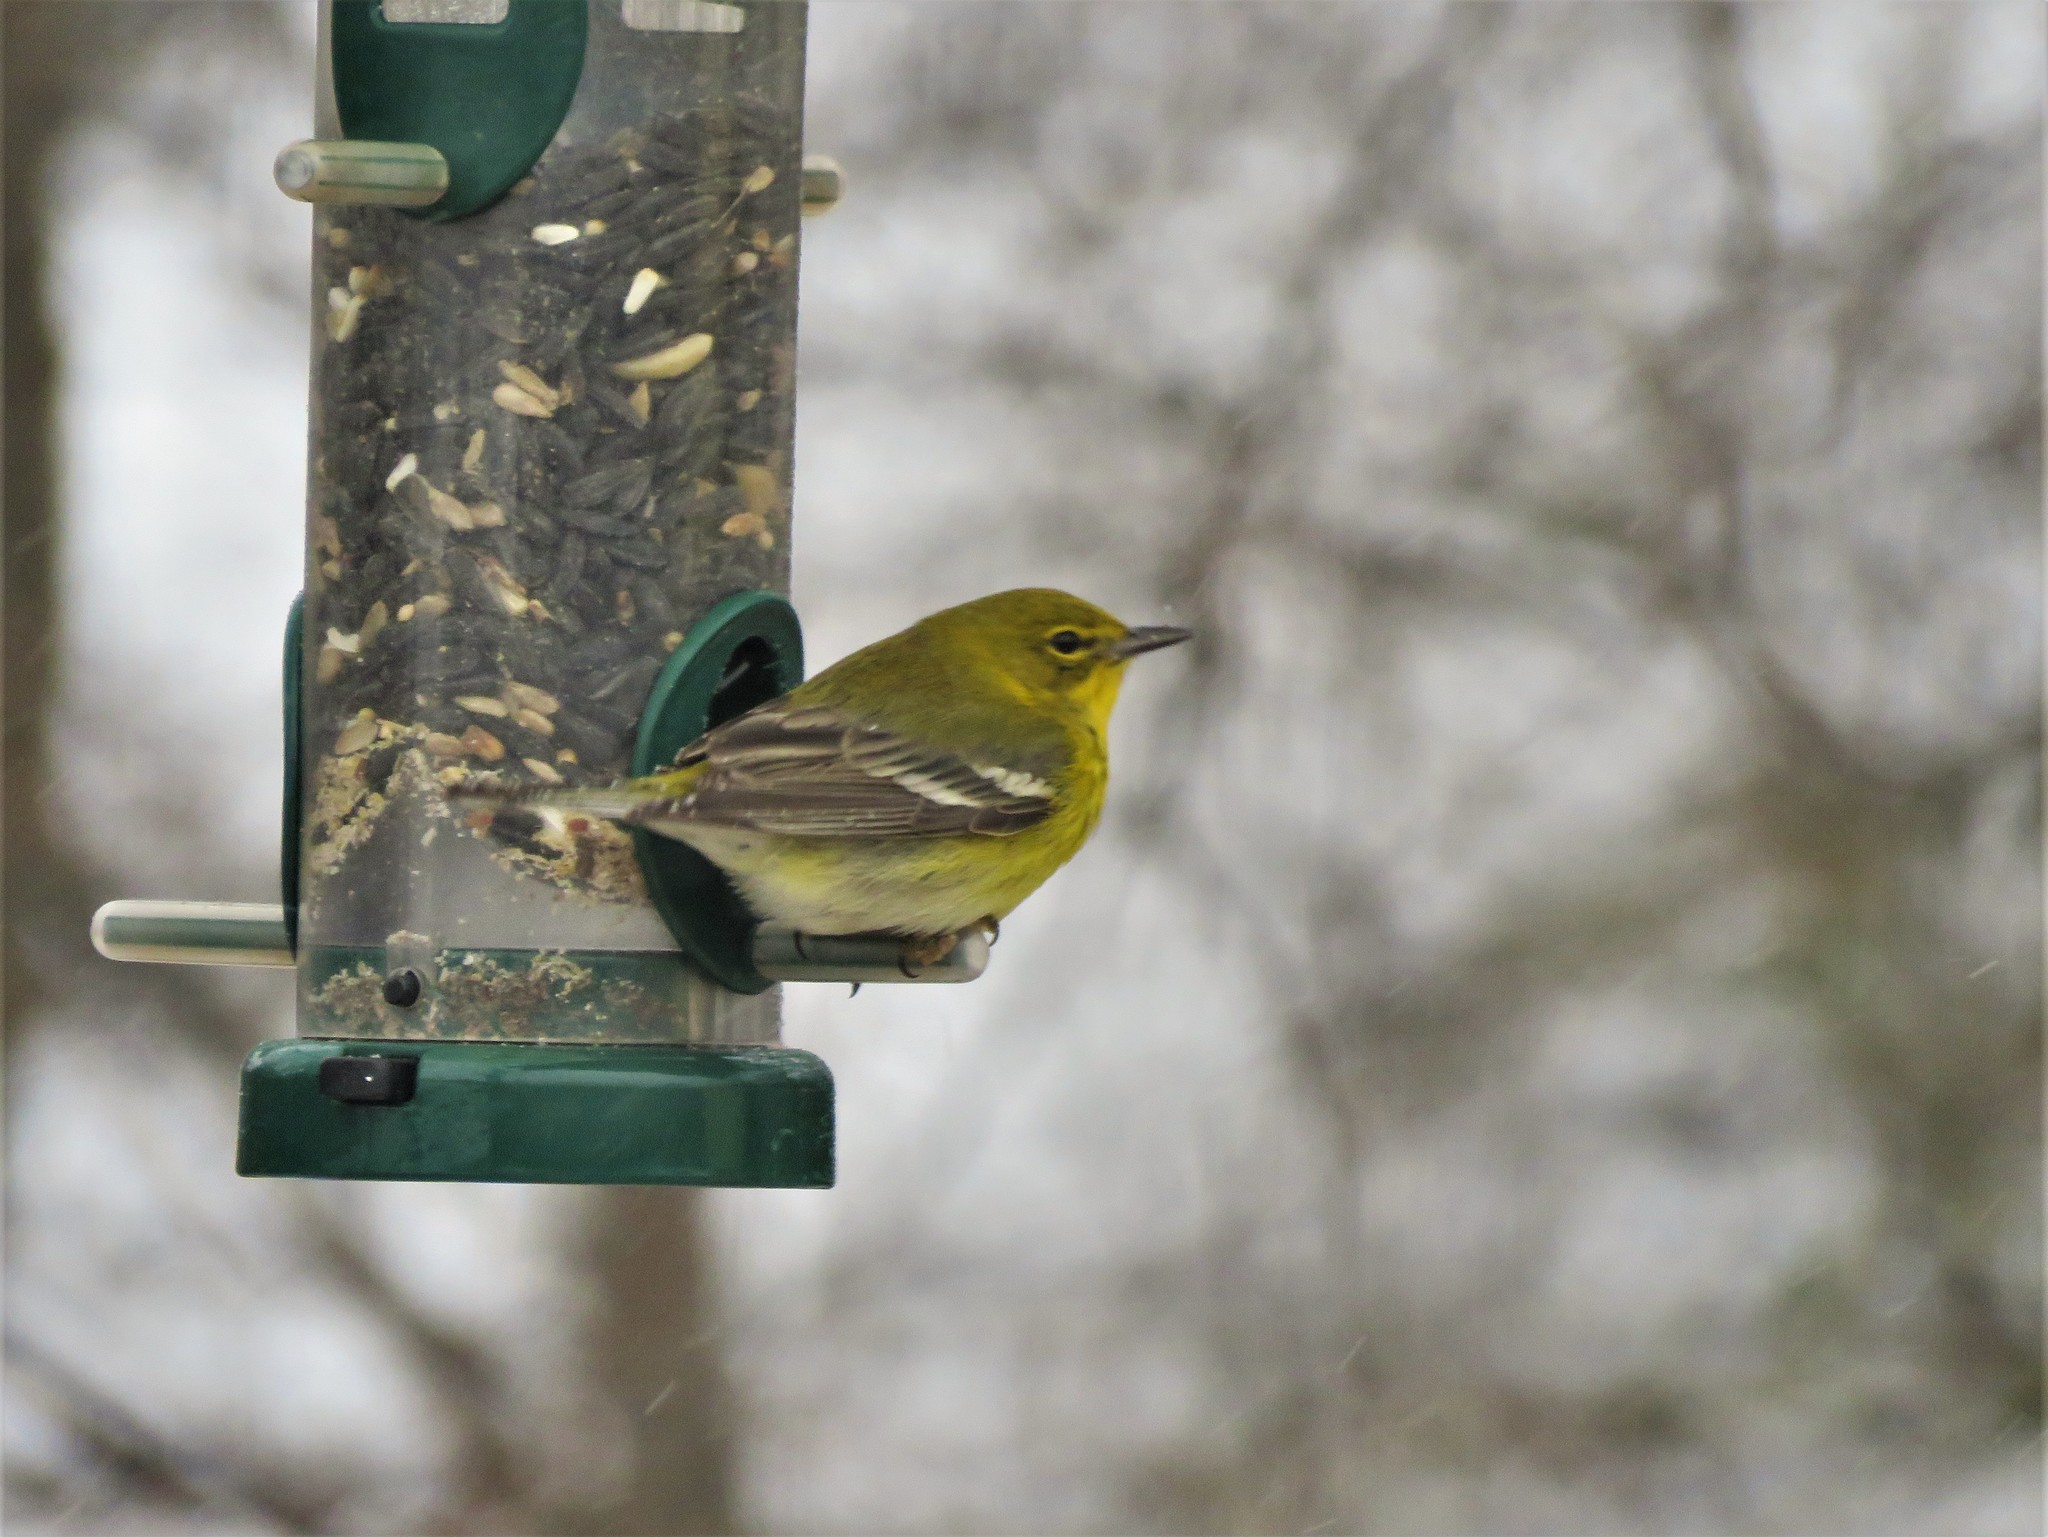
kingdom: Animalia
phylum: Chordata
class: Aves
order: Passeriformes
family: Parulidae
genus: Setophaga
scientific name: Setophaga pinus
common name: Pine warbler
